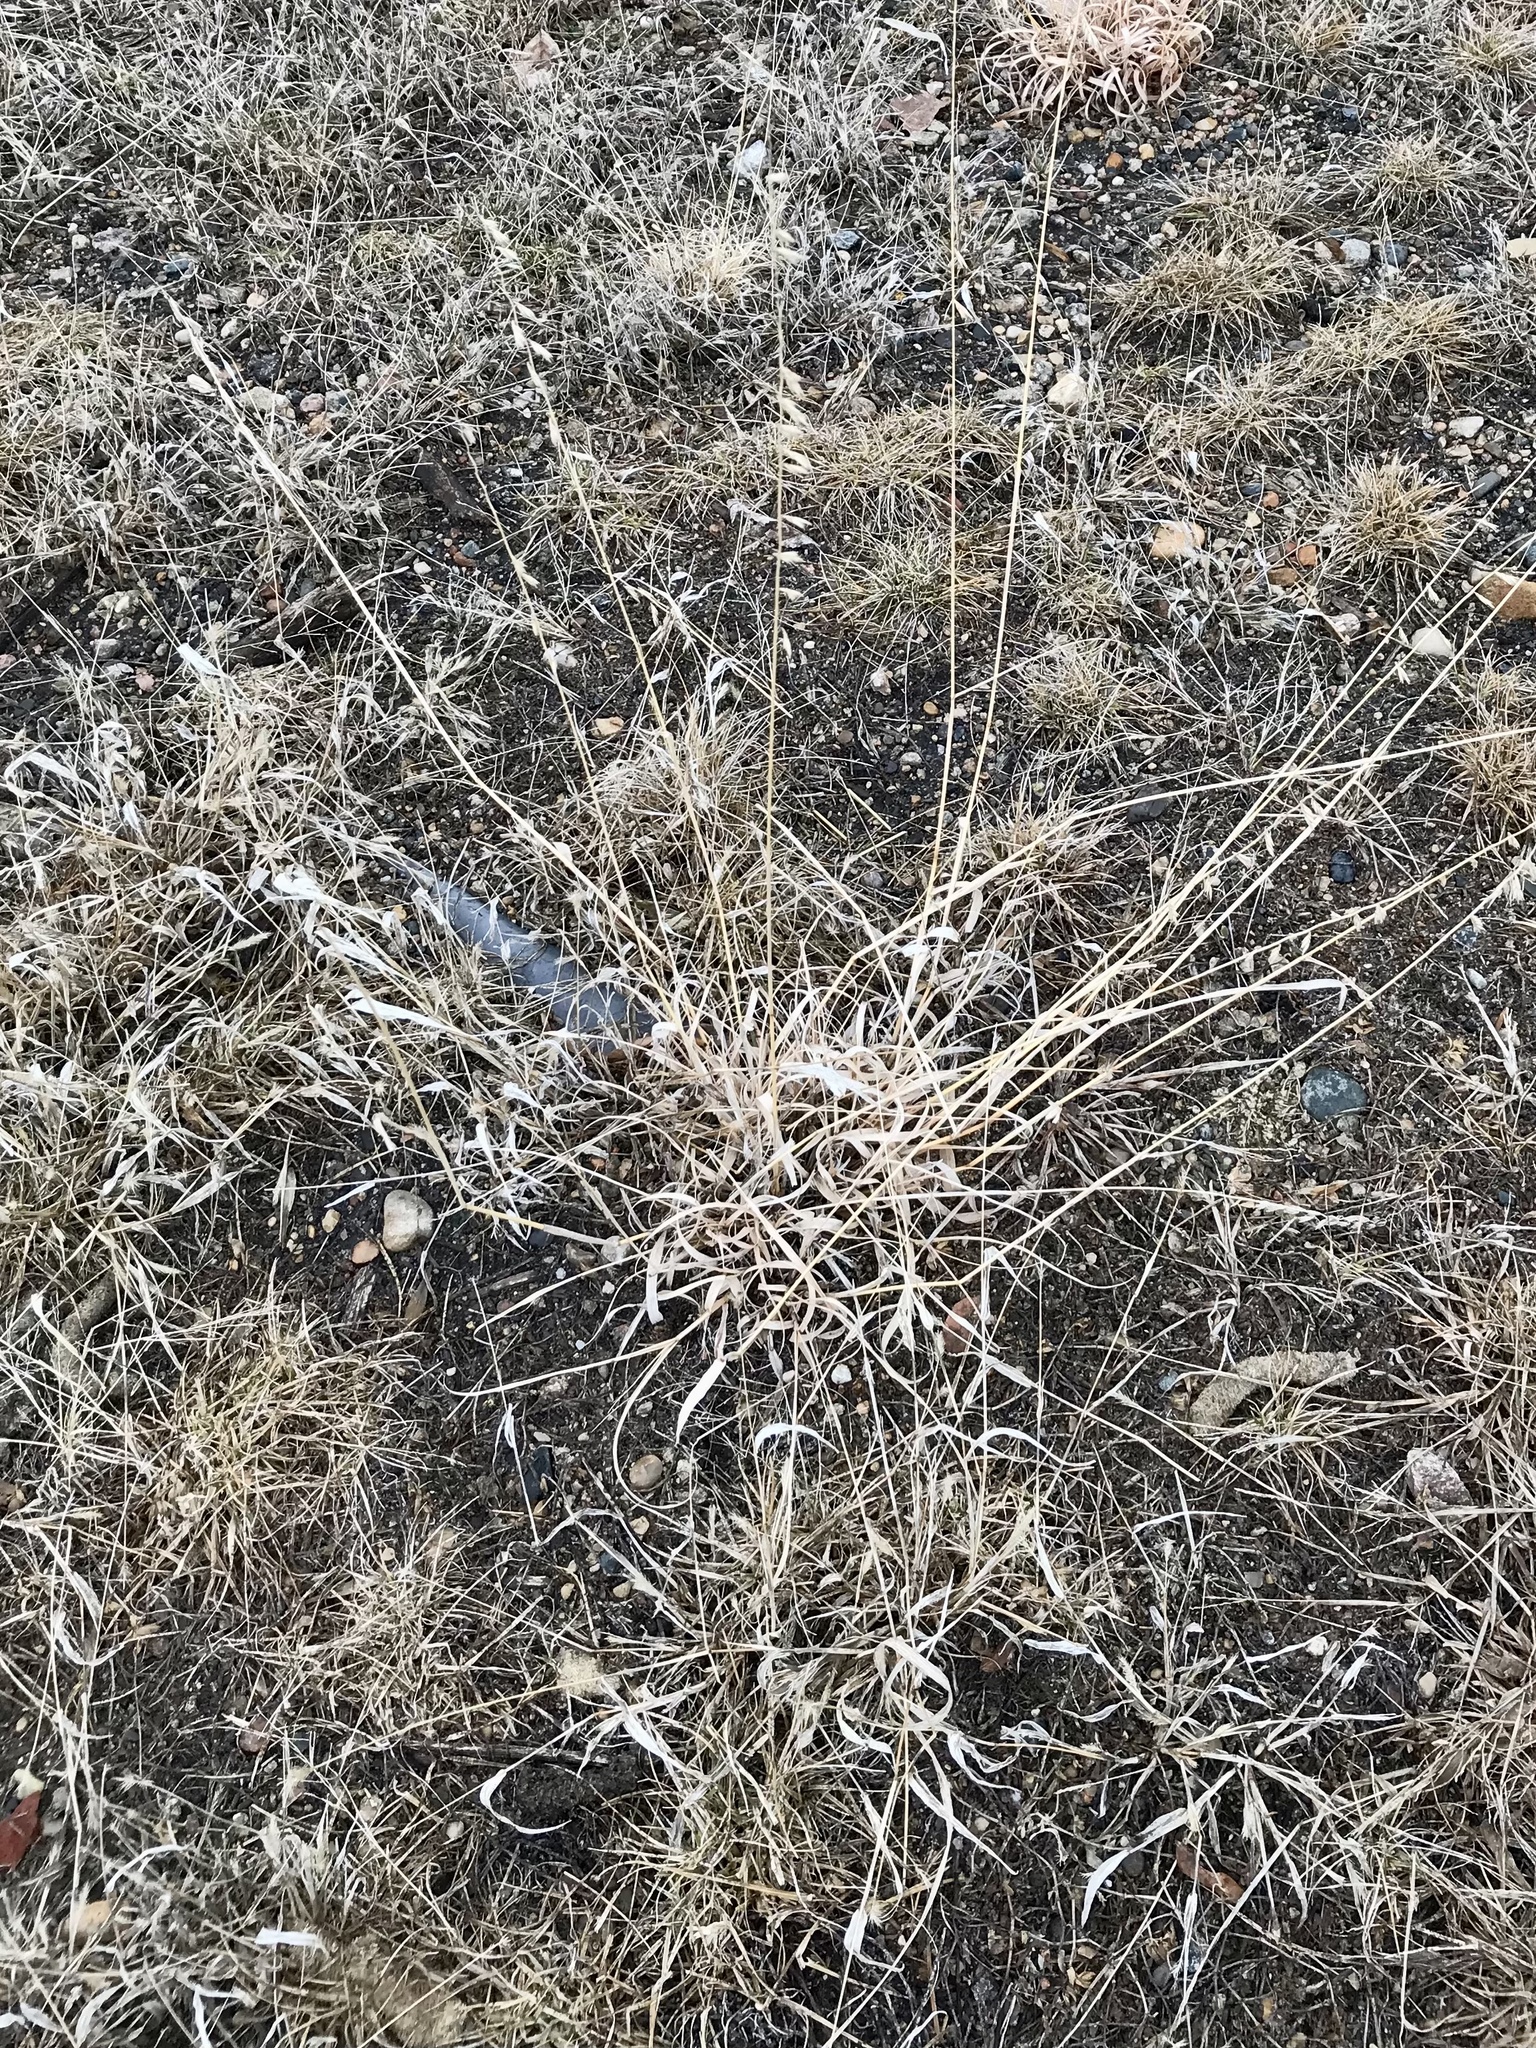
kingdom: Plantae
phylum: Tracheophyta
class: Liliopsida
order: Poales
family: Poaceae
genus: Bouteloua
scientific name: Bouteloua curtipendula
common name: Side-oats grama
